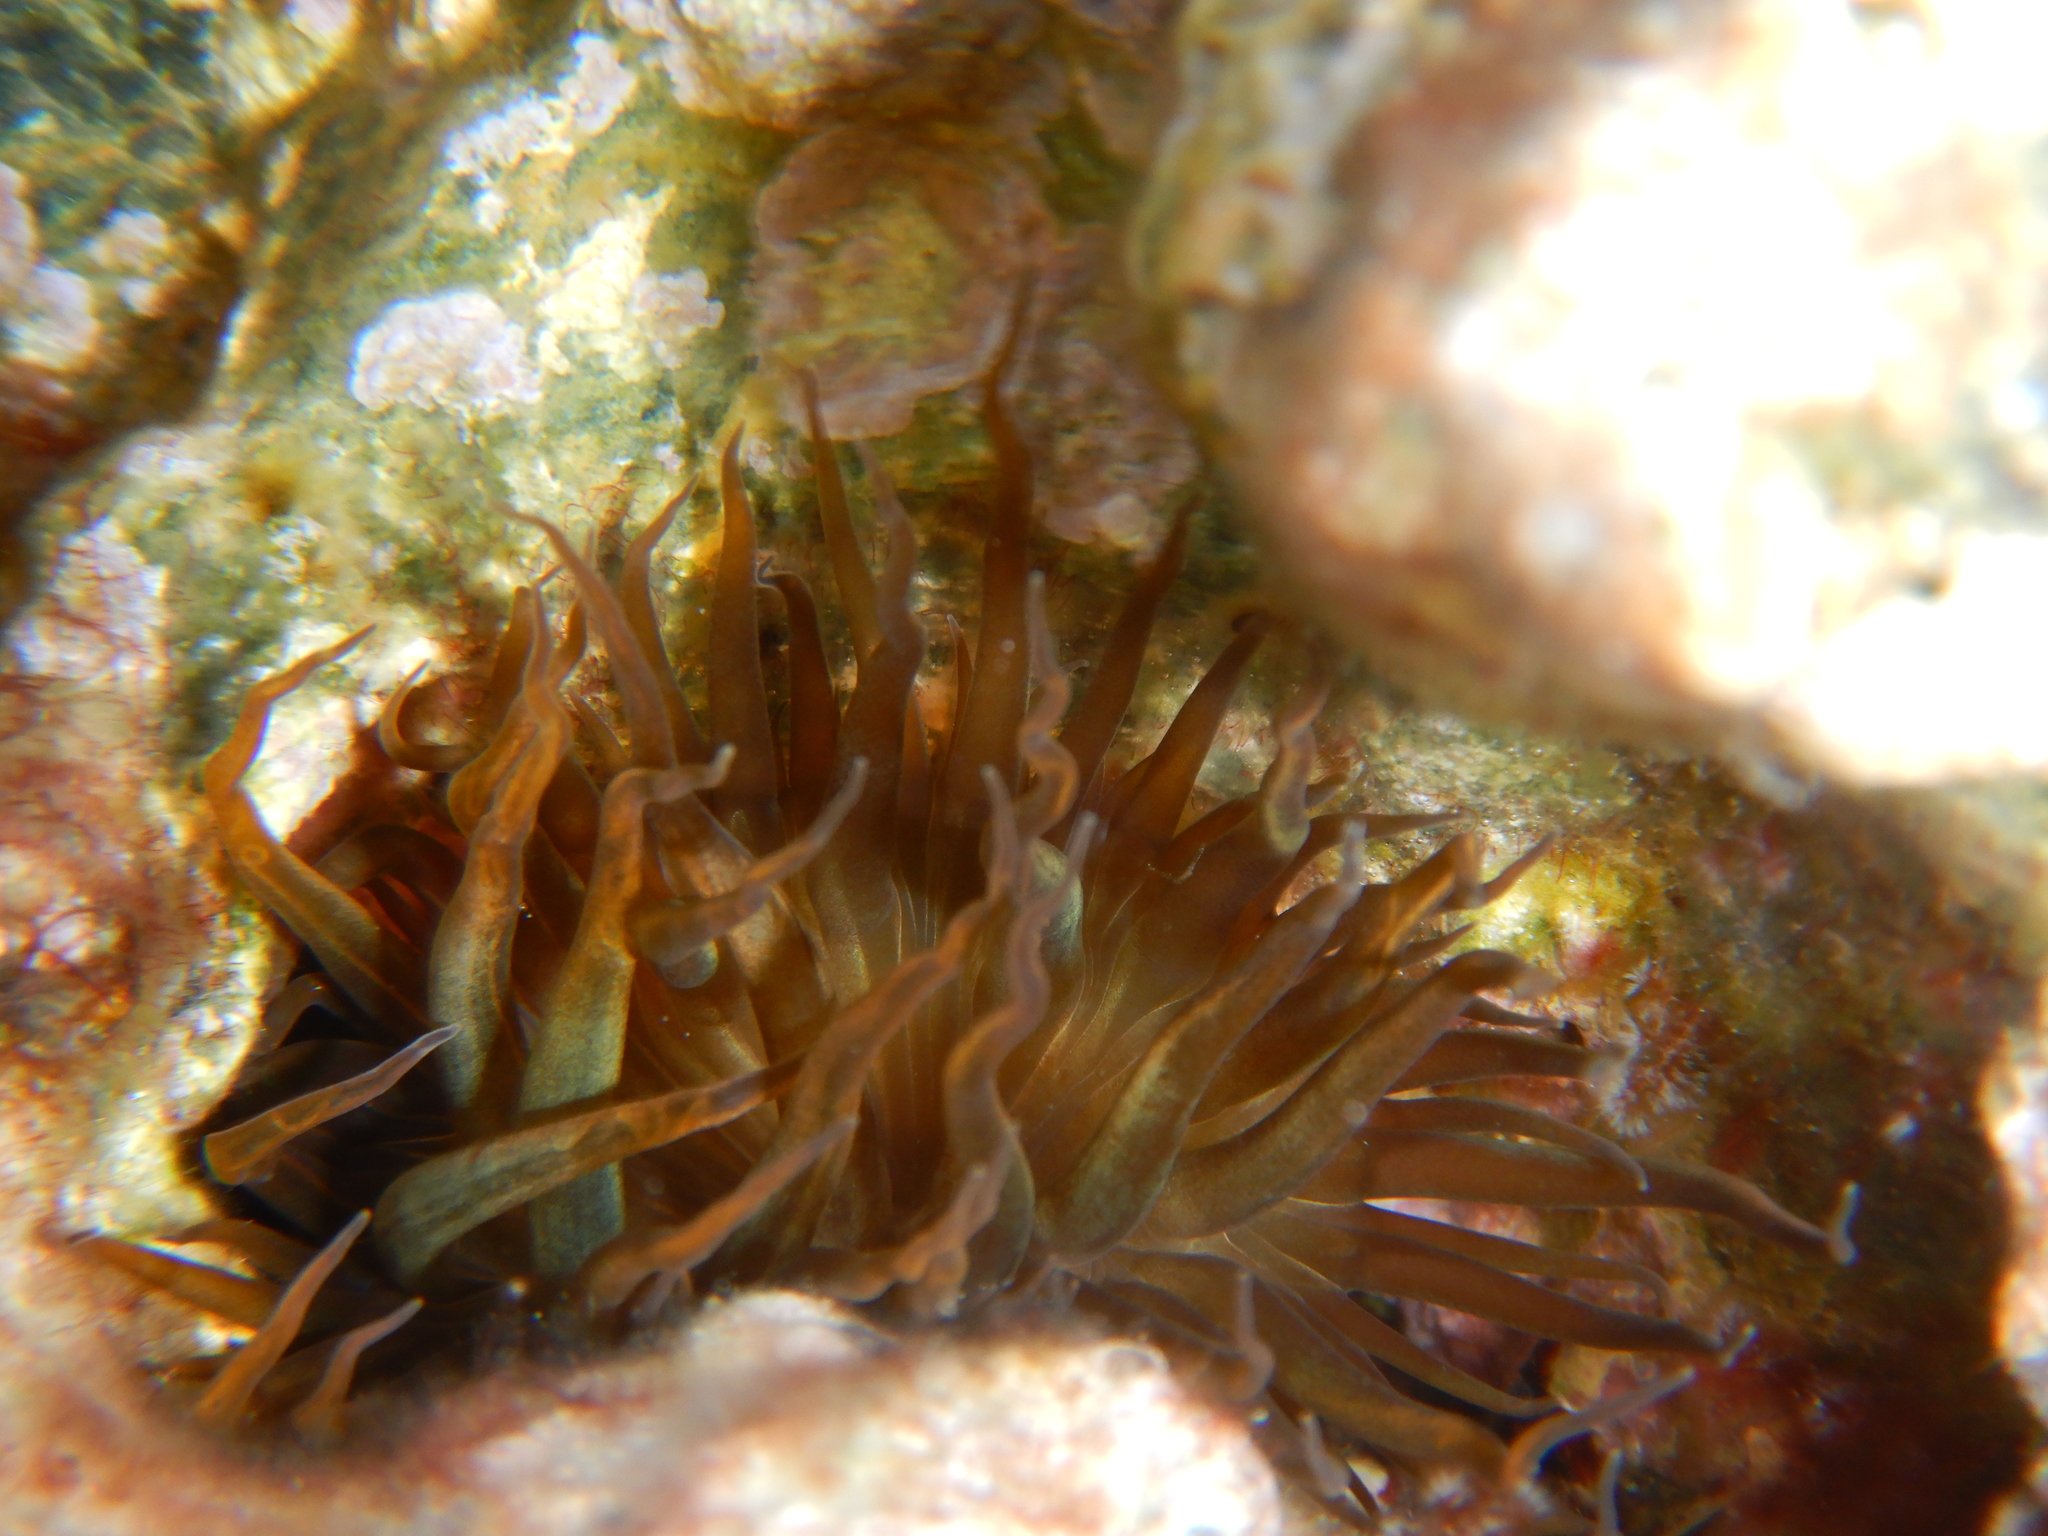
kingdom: Animalia
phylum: Cnidaria
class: Anthozoa
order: Actiniaria
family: Aiptasiidae
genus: Aiptasia
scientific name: Aiptasia couchii
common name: Trumpet anemone
